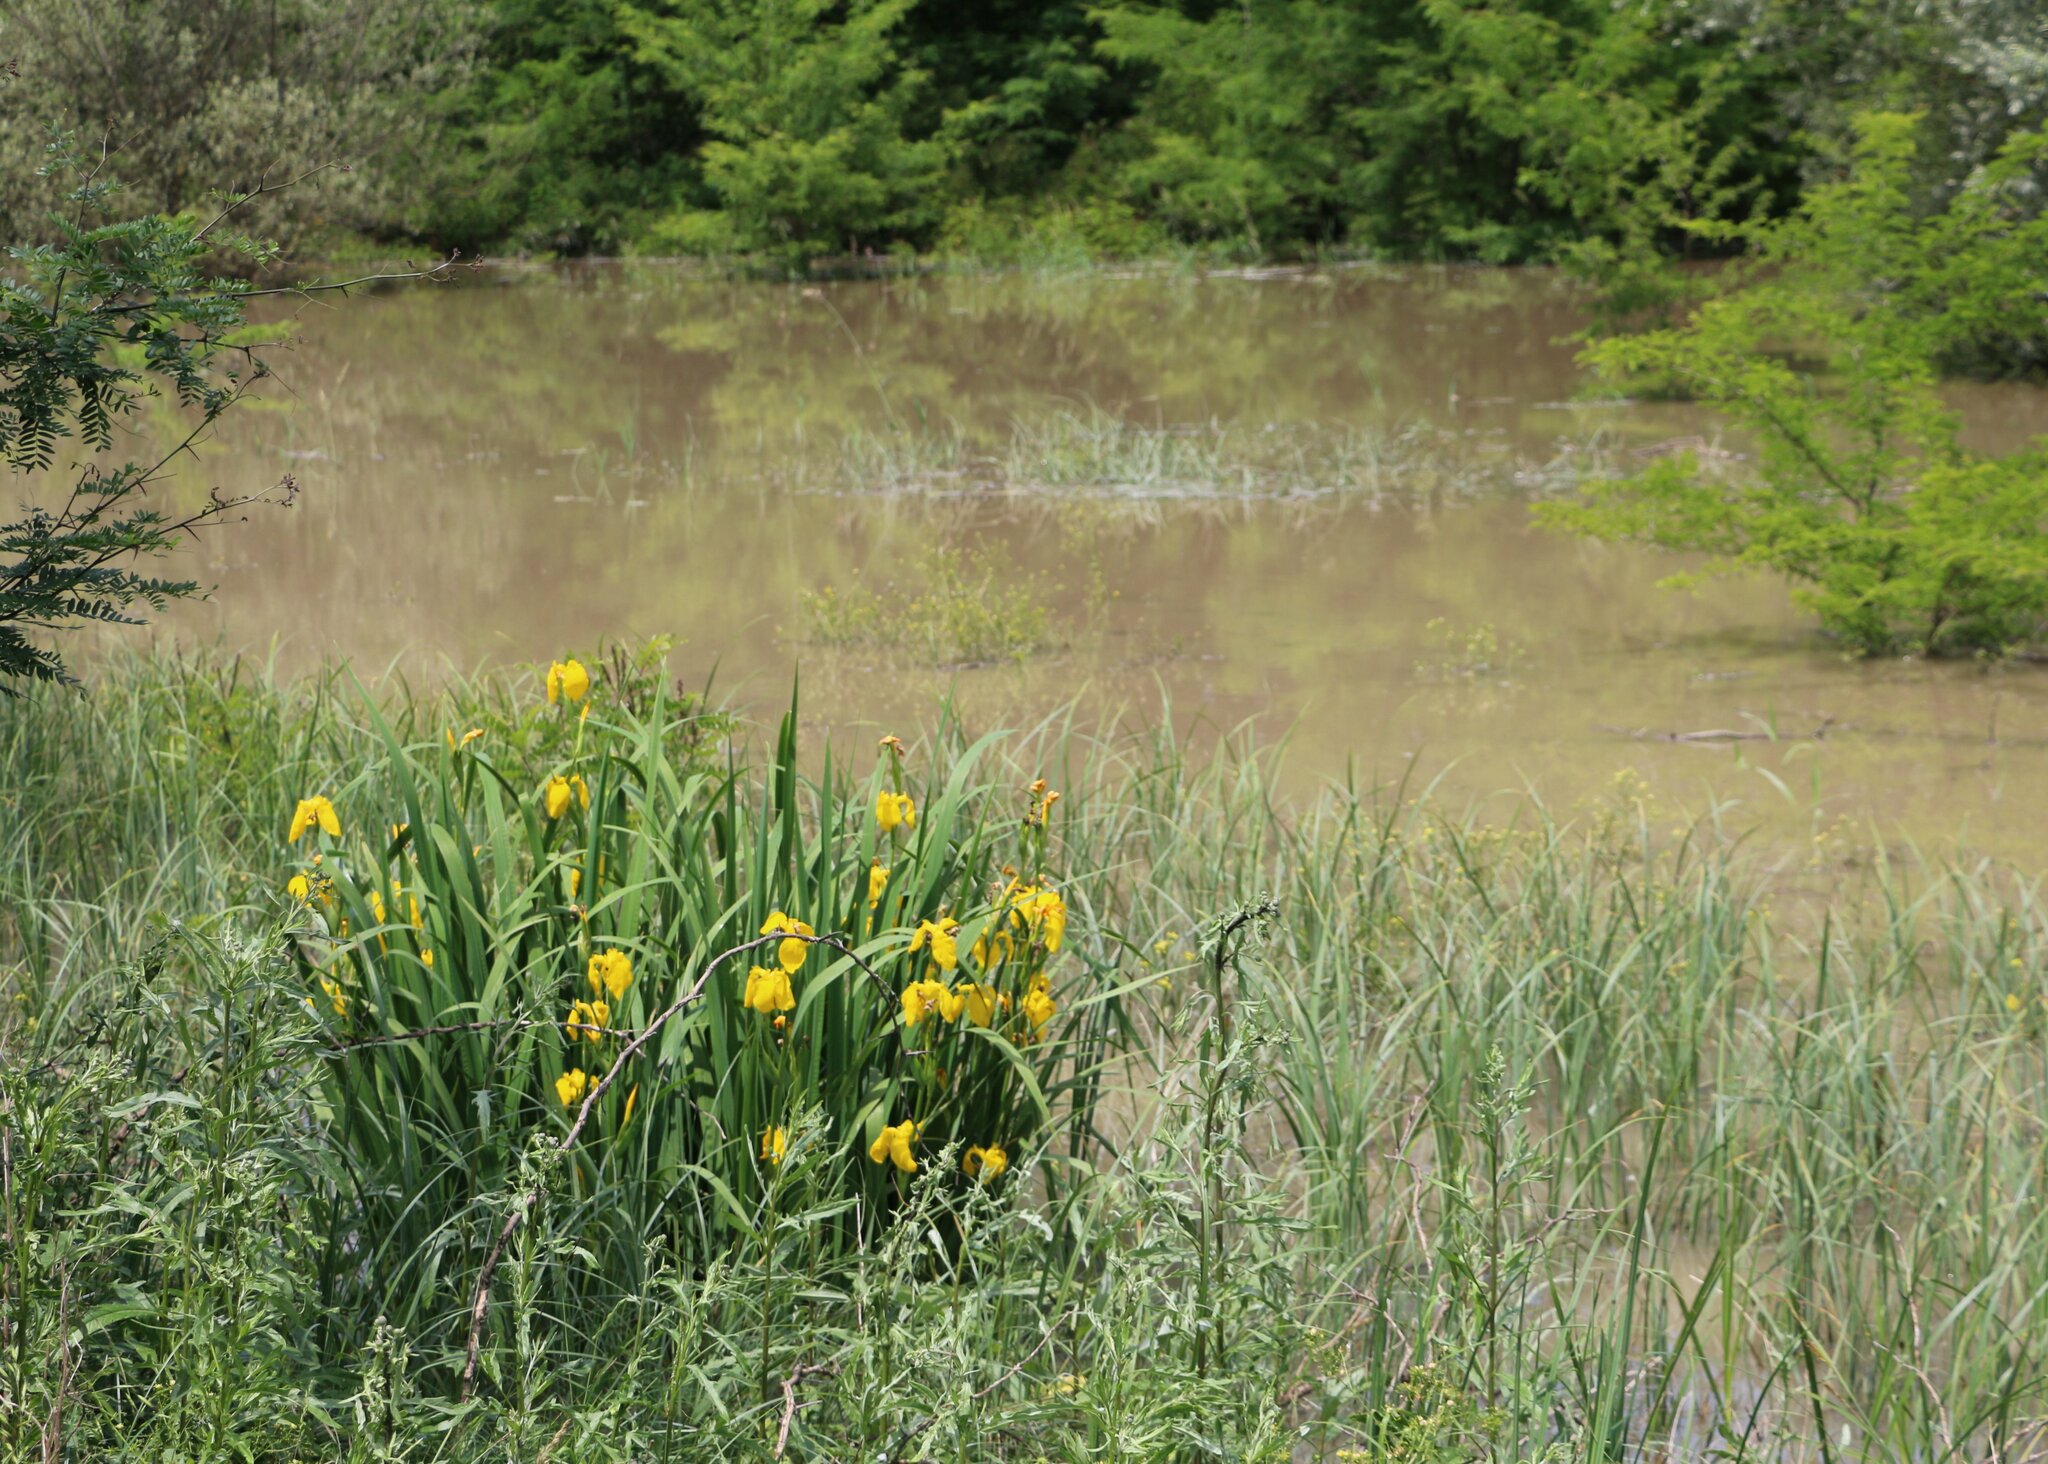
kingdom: Plantae
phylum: Tracheophyta
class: Liliopsida
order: Asparagales
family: Iridaceae
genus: Iris
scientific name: Iris pseudacorus
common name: Yellow flag
